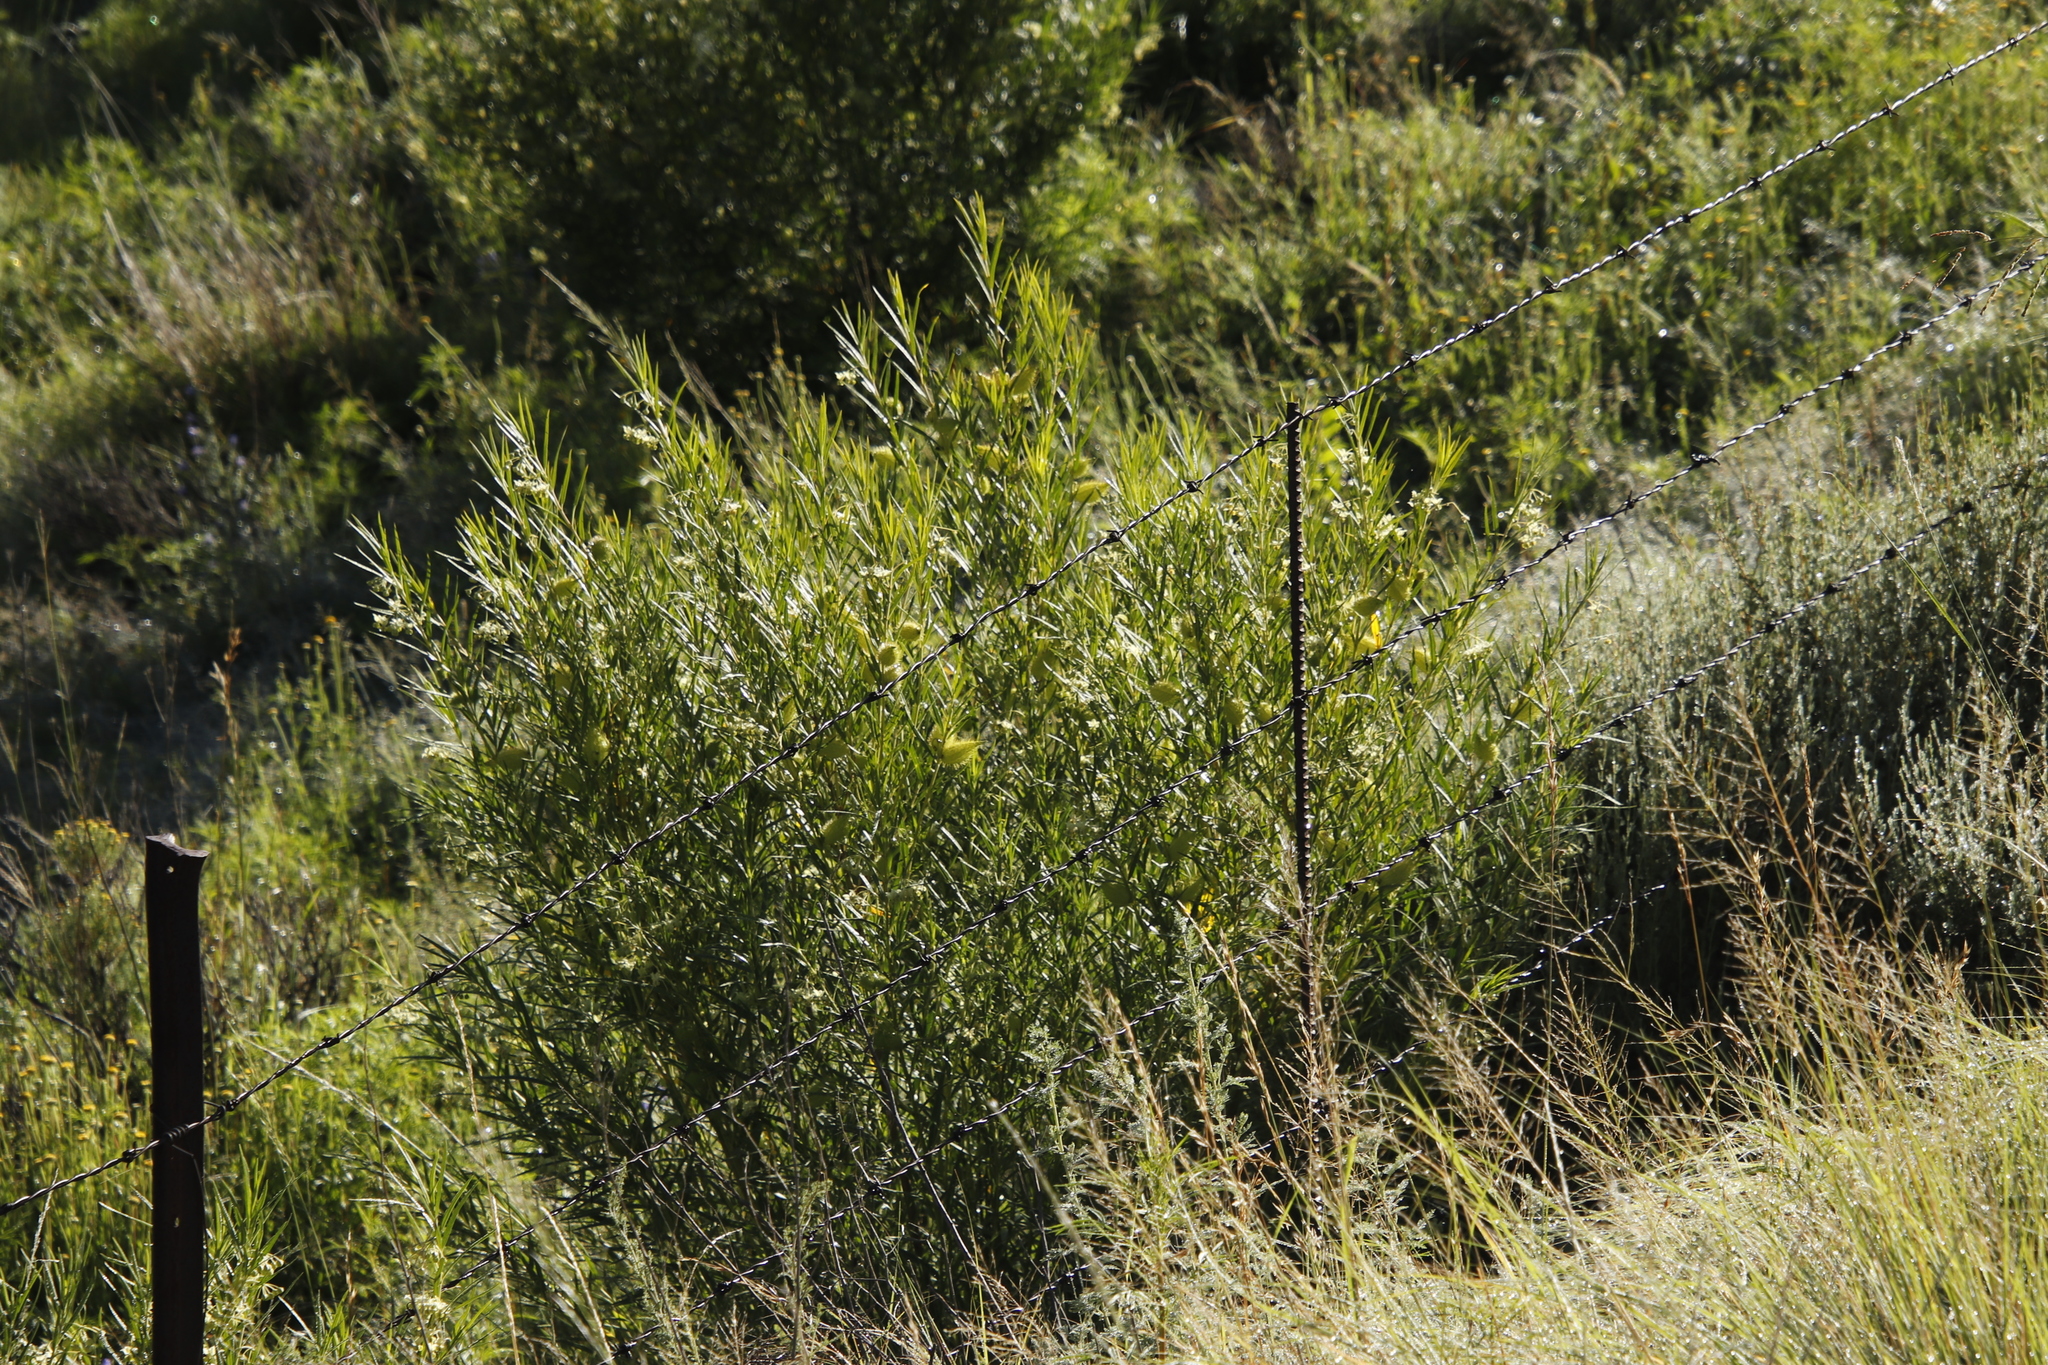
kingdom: Plantae
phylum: Tracheophyta
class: Magnoliopsida
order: Gentianales
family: Apocynaceae
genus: Gomphocarpus
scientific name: Gomphocarpus fruticosus
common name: Milkweed
